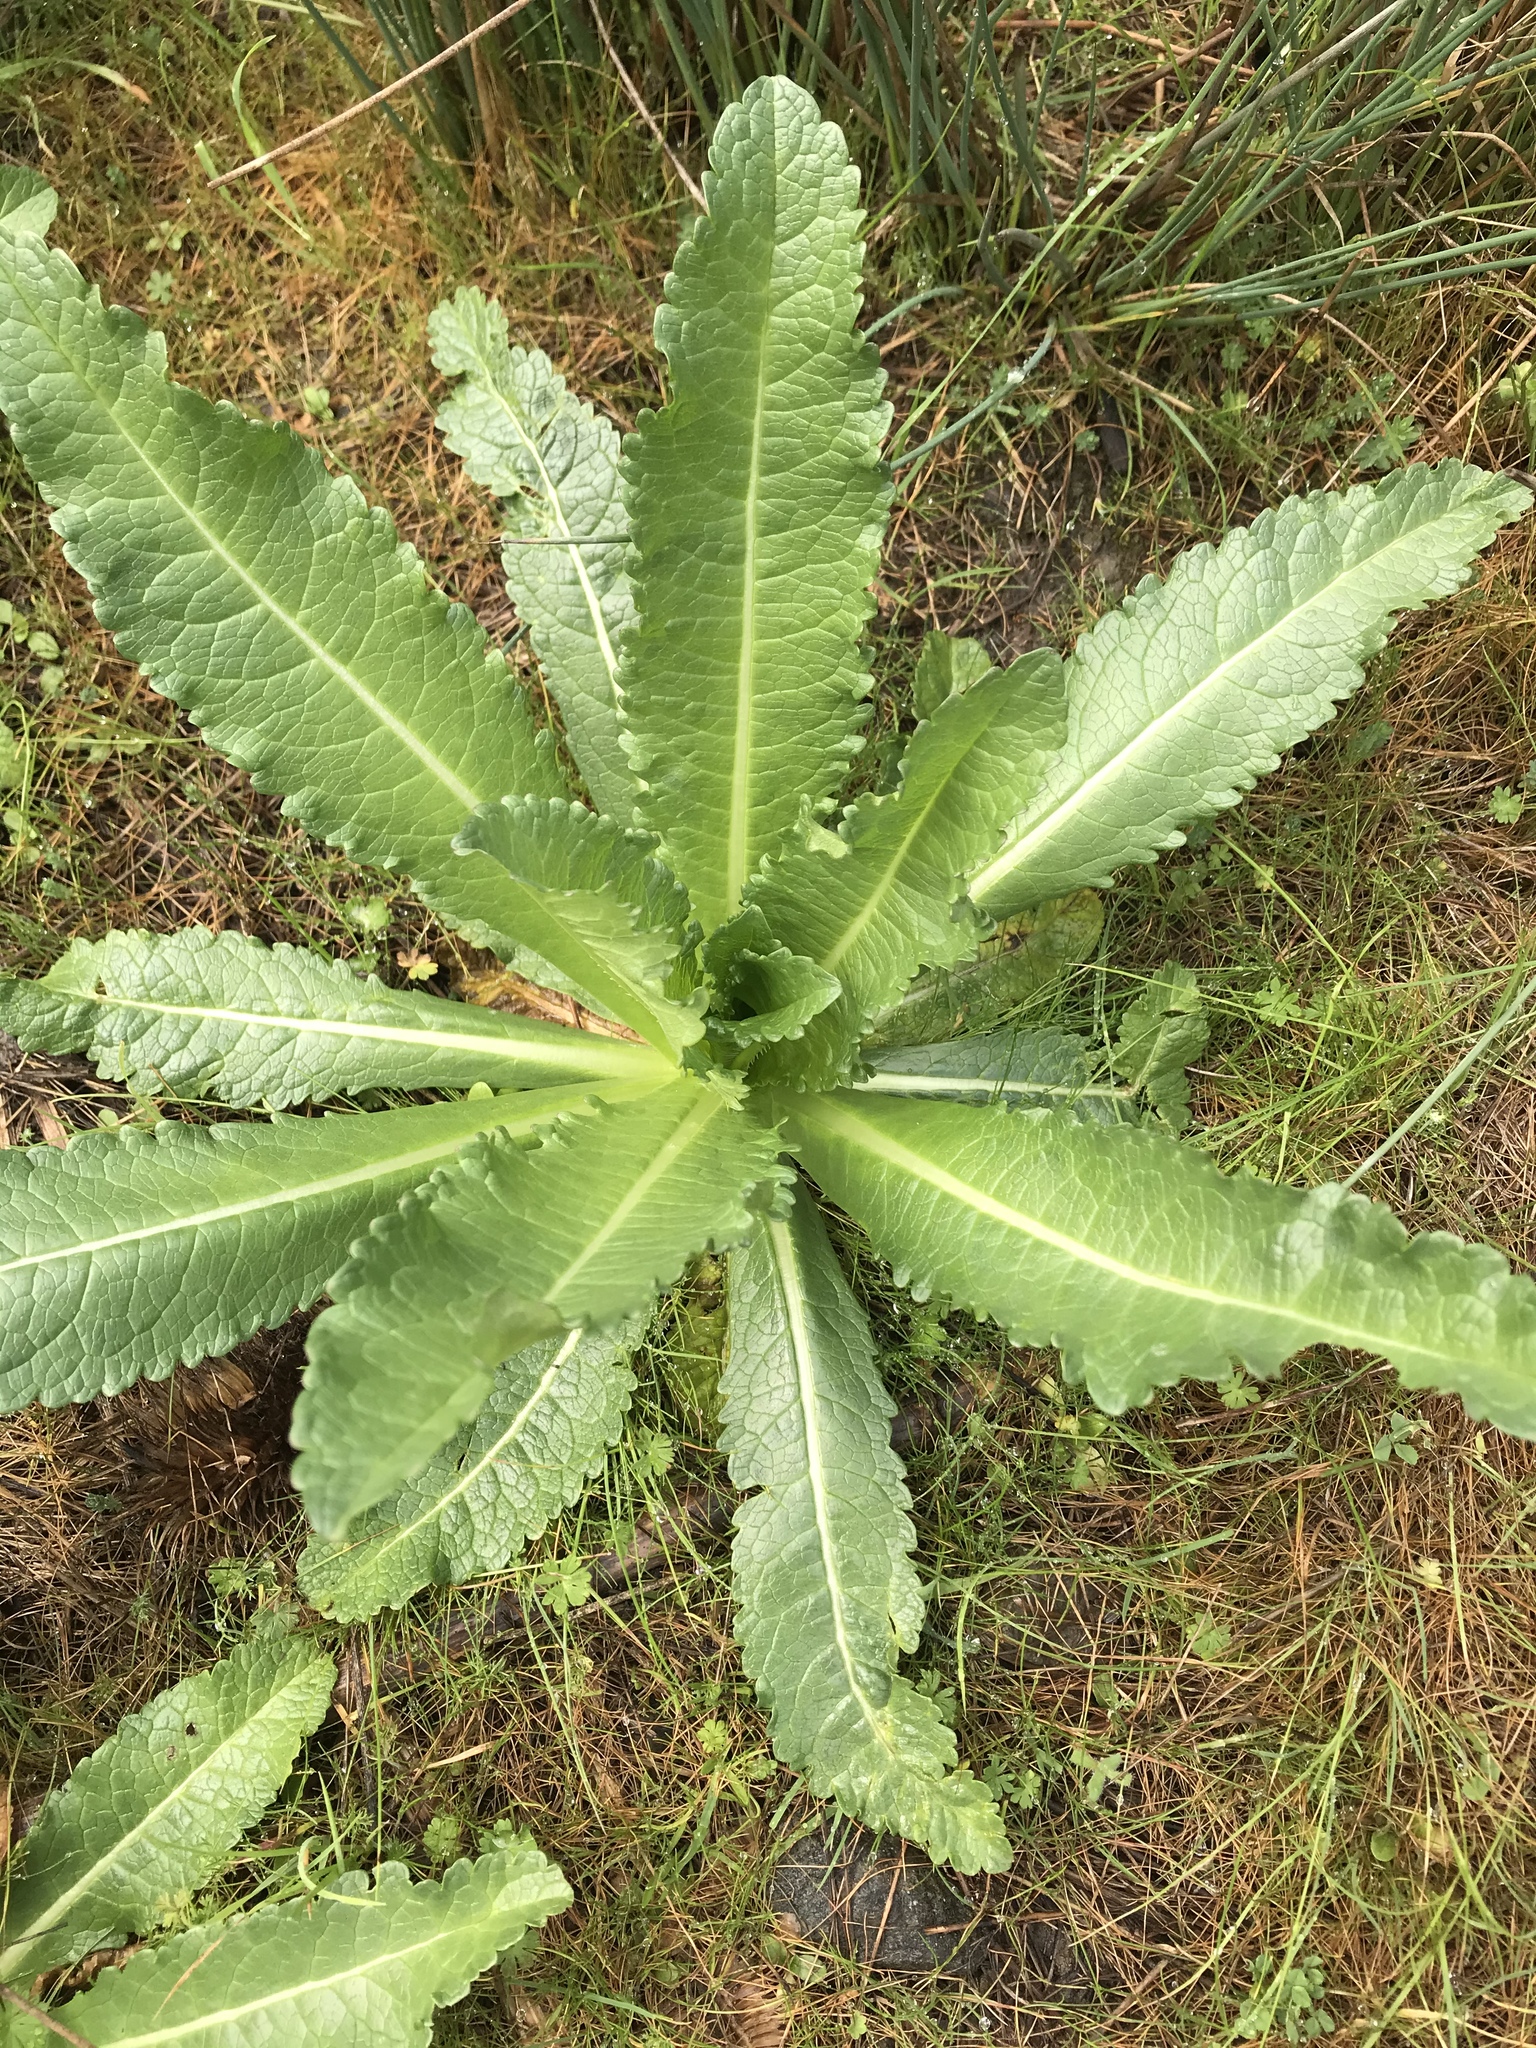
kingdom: Plantae
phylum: Tracheophyta
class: Magnoliopsida
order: Dipsacales
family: Caprifoliaceae
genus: Dipsacus
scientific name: Dipsacus sativus
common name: Fuller's teasel
